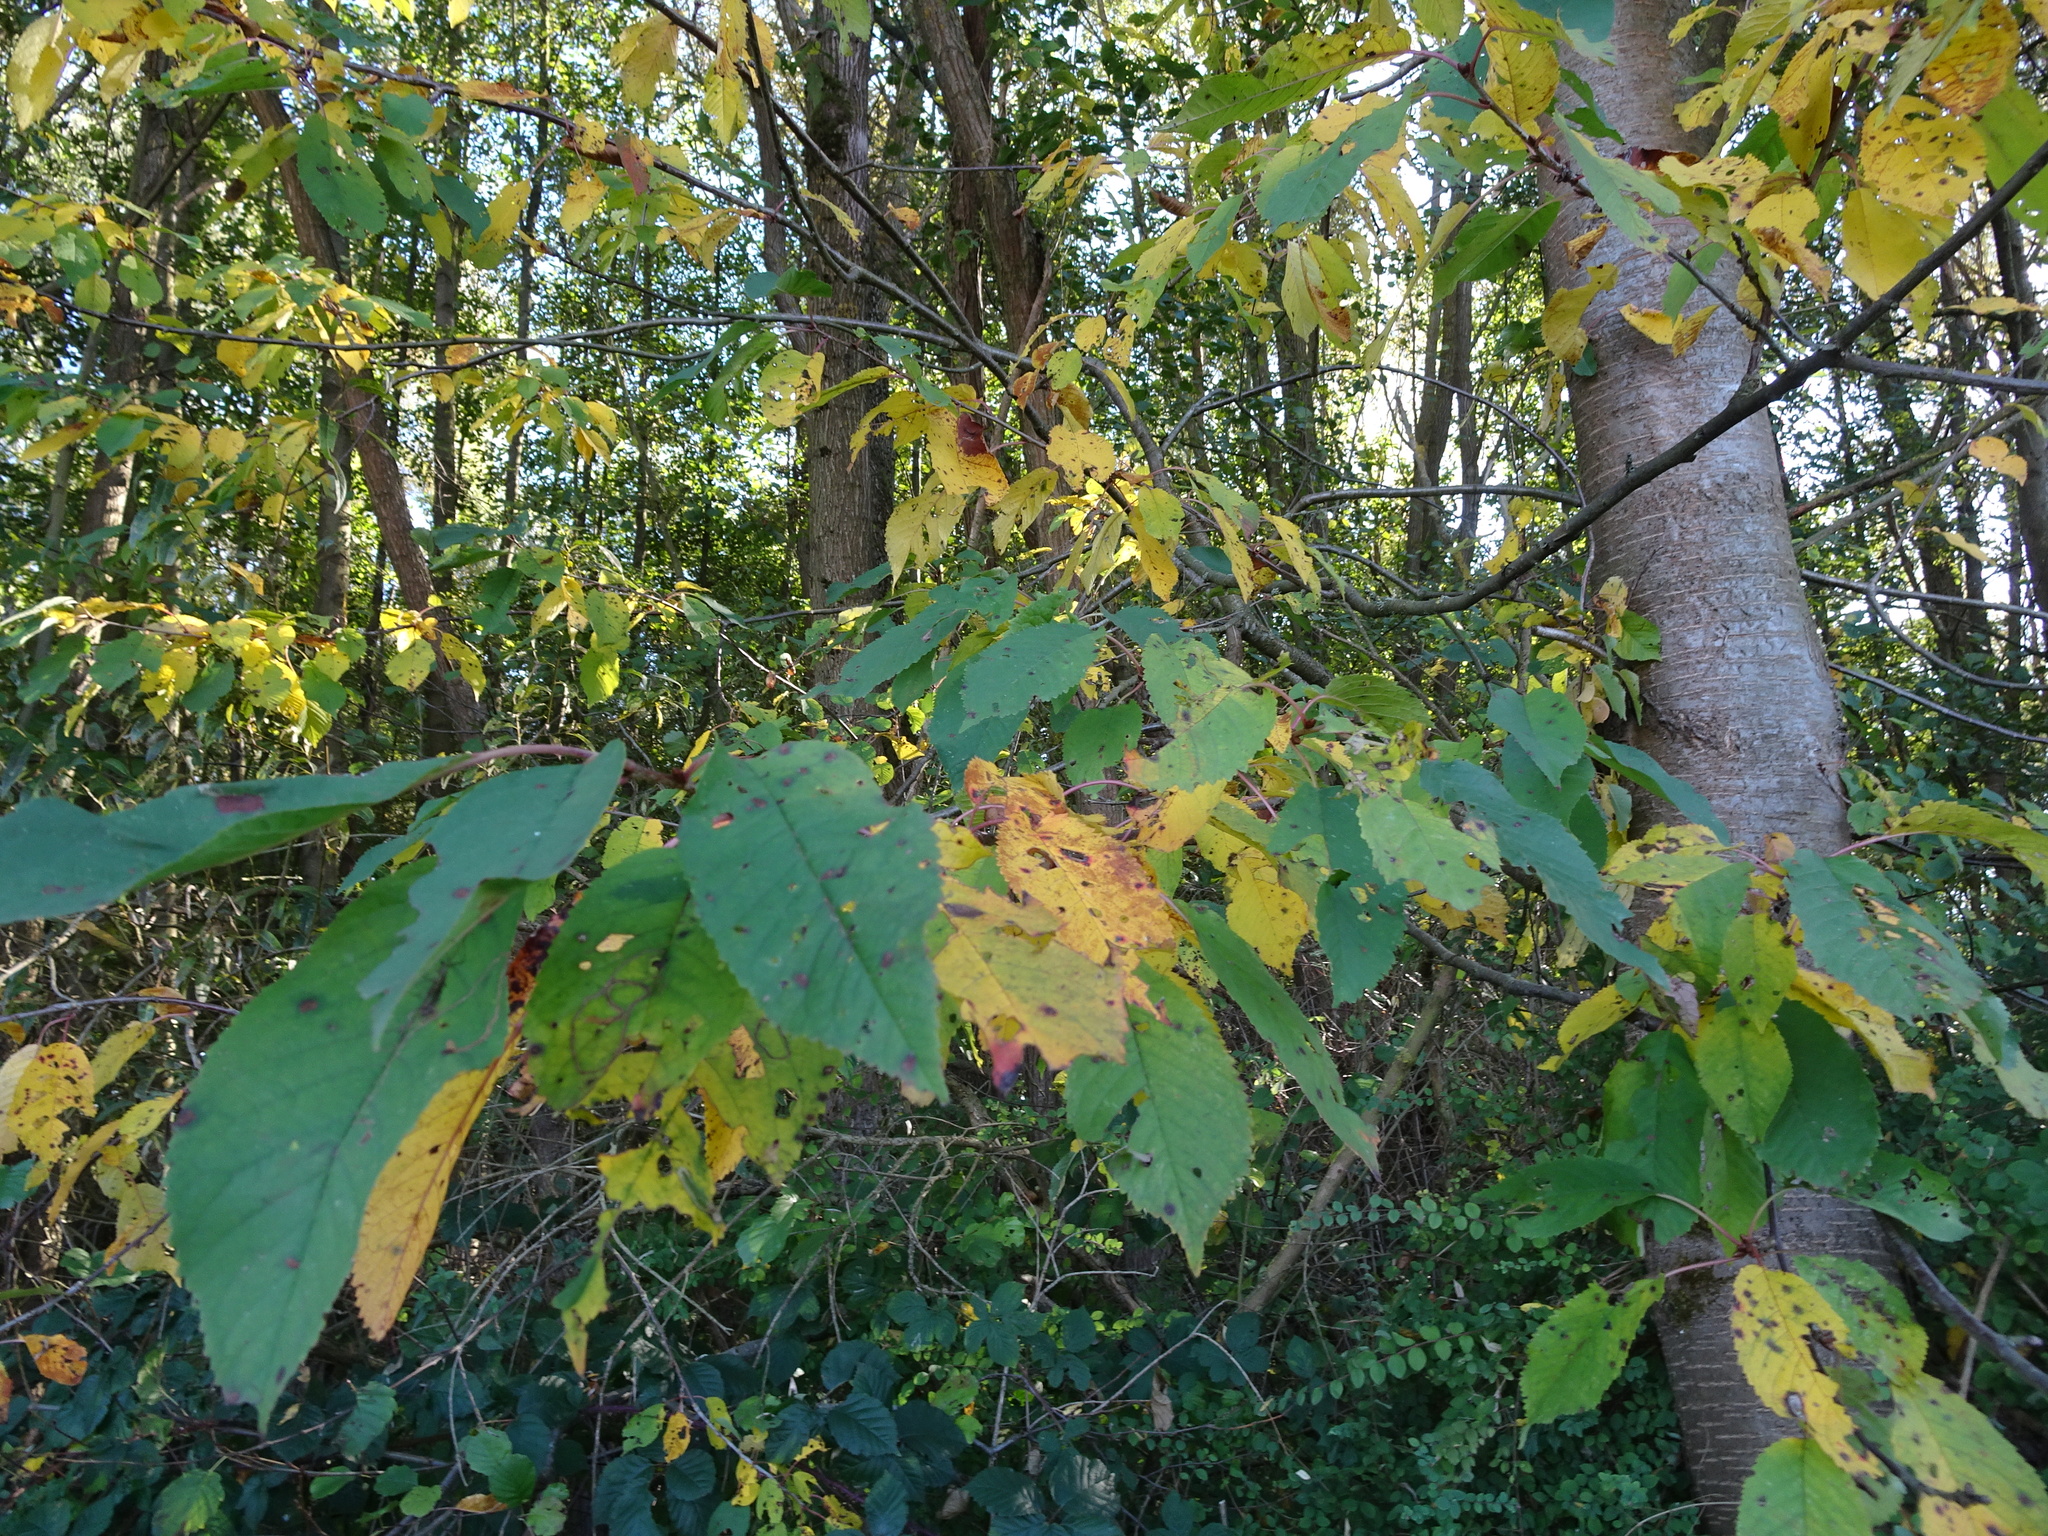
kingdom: Plantae
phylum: Tracheophyta
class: Magnoliopsida
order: Rosales
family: Rosaceae
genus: Prunus
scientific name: Prunus avium
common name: Sweet cherry
